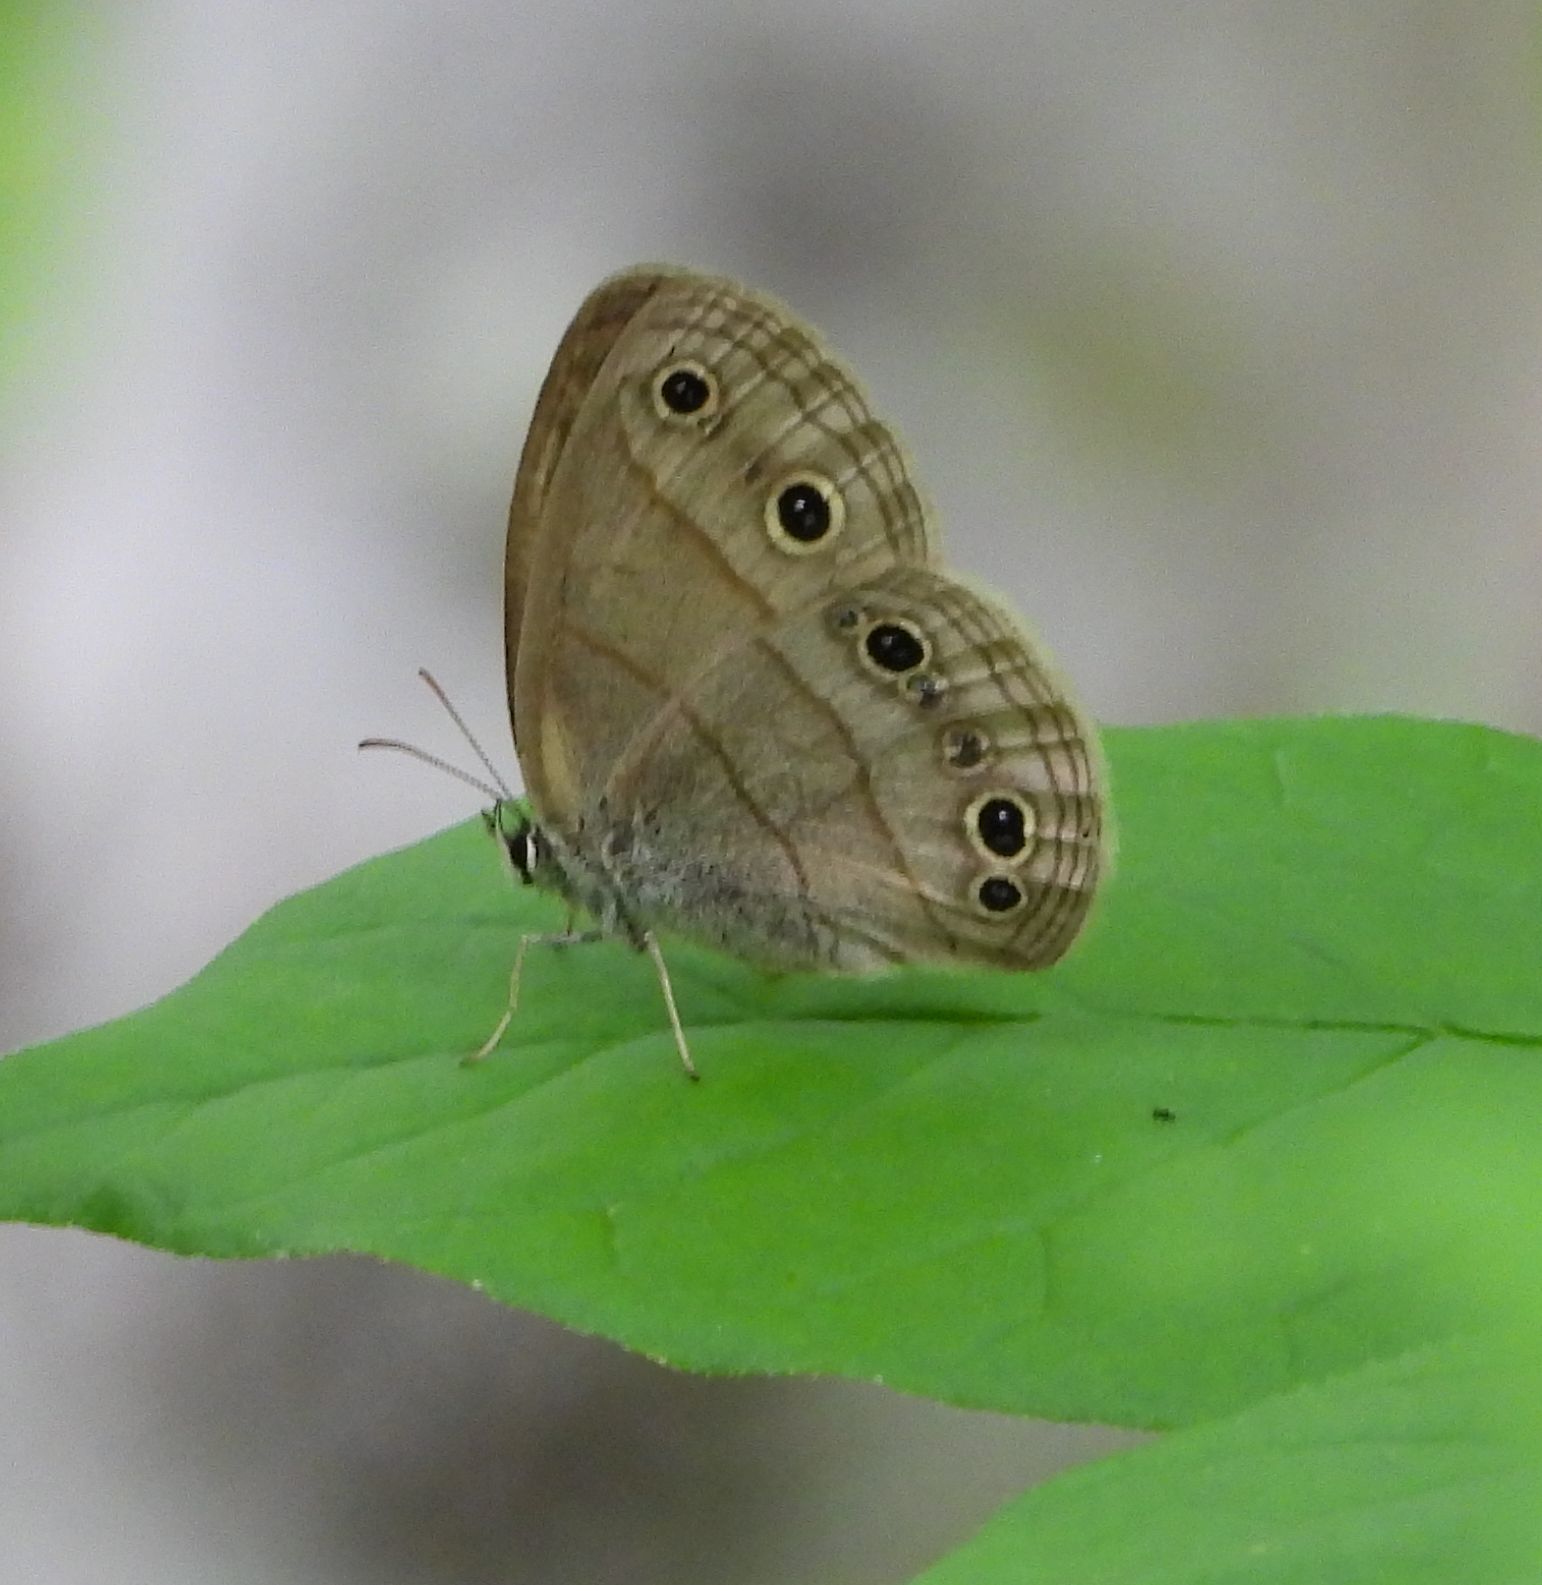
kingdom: Animalia
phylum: Arthropoda
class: Insecta
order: Lepidoptera
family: Nymphalidae
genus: Euptychia
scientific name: Euptychia cymela
